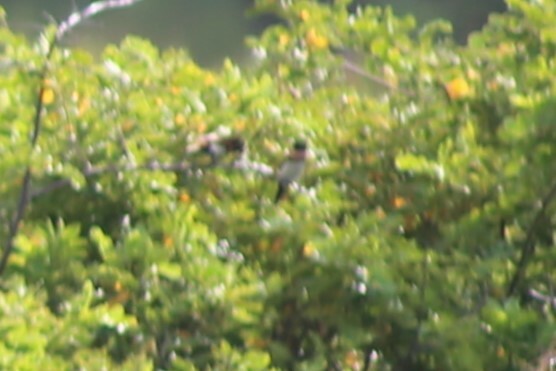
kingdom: Animalia
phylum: Chordata
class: Aves
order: Passeriformes
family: Estrildidae
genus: Lonchura
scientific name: Lonchura castaneothorax
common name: Chestnut-breasted mannikin
